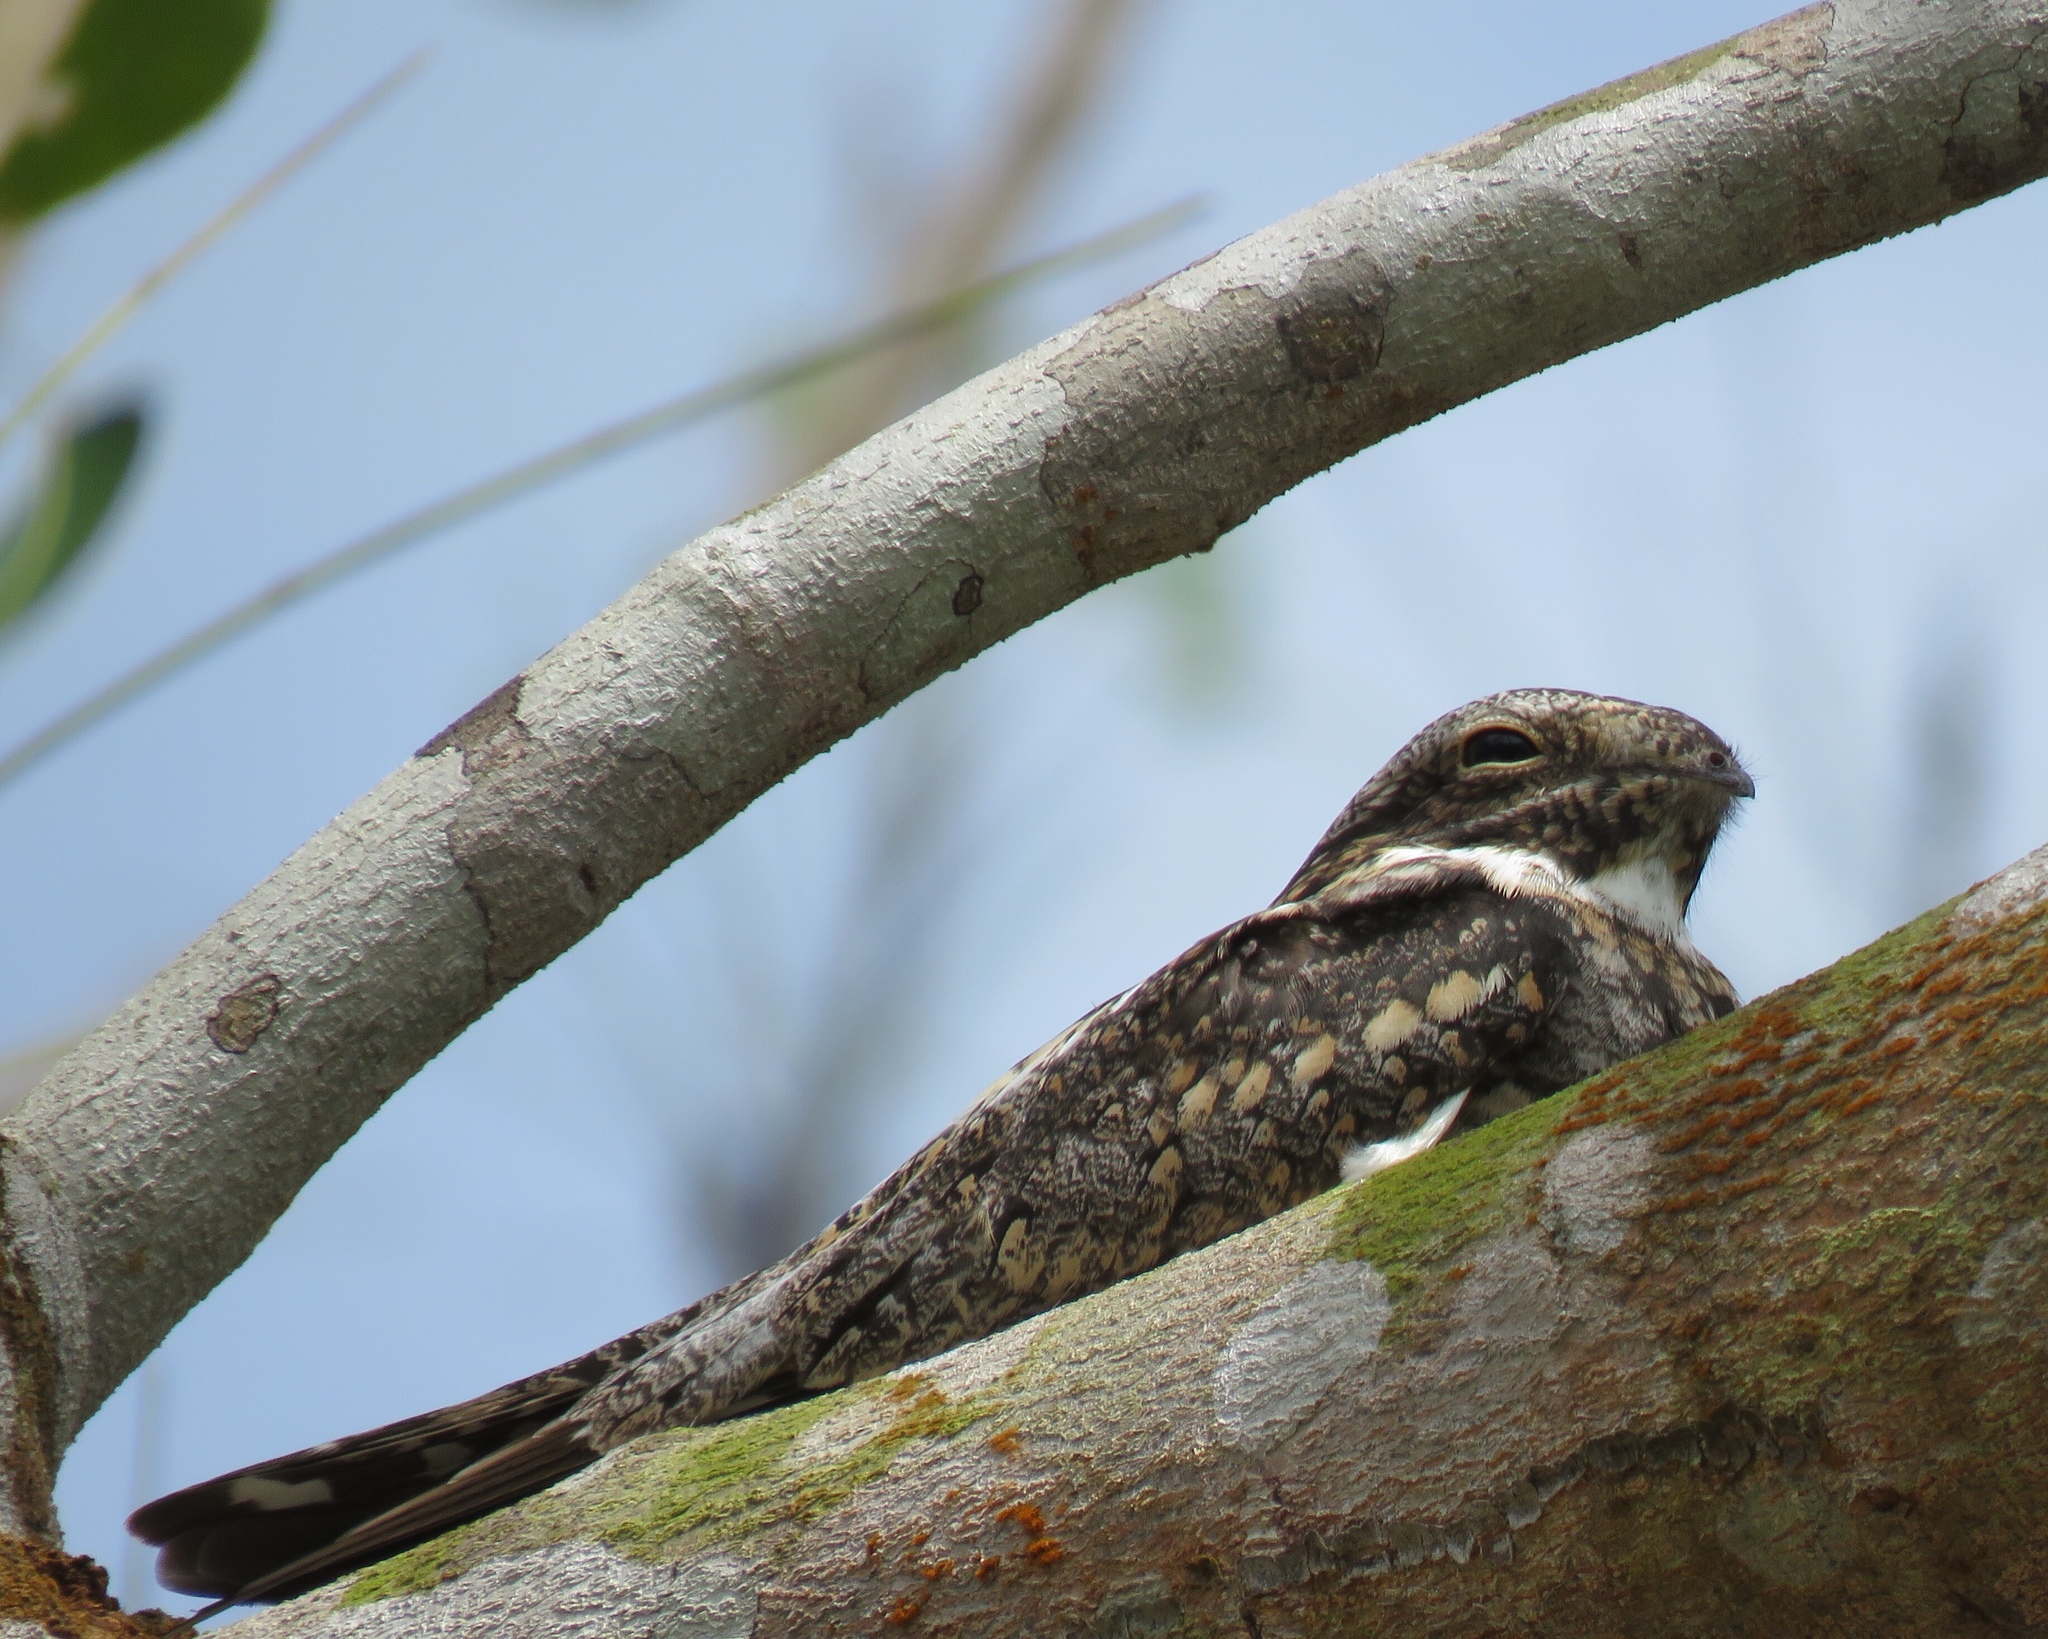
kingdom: Animalia
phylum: Chordata
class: Aves
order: Caprimulgiformes
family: Caprimulgidae
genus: Chordeiles
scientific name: Chordeiles minor
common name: Common nighthawk
